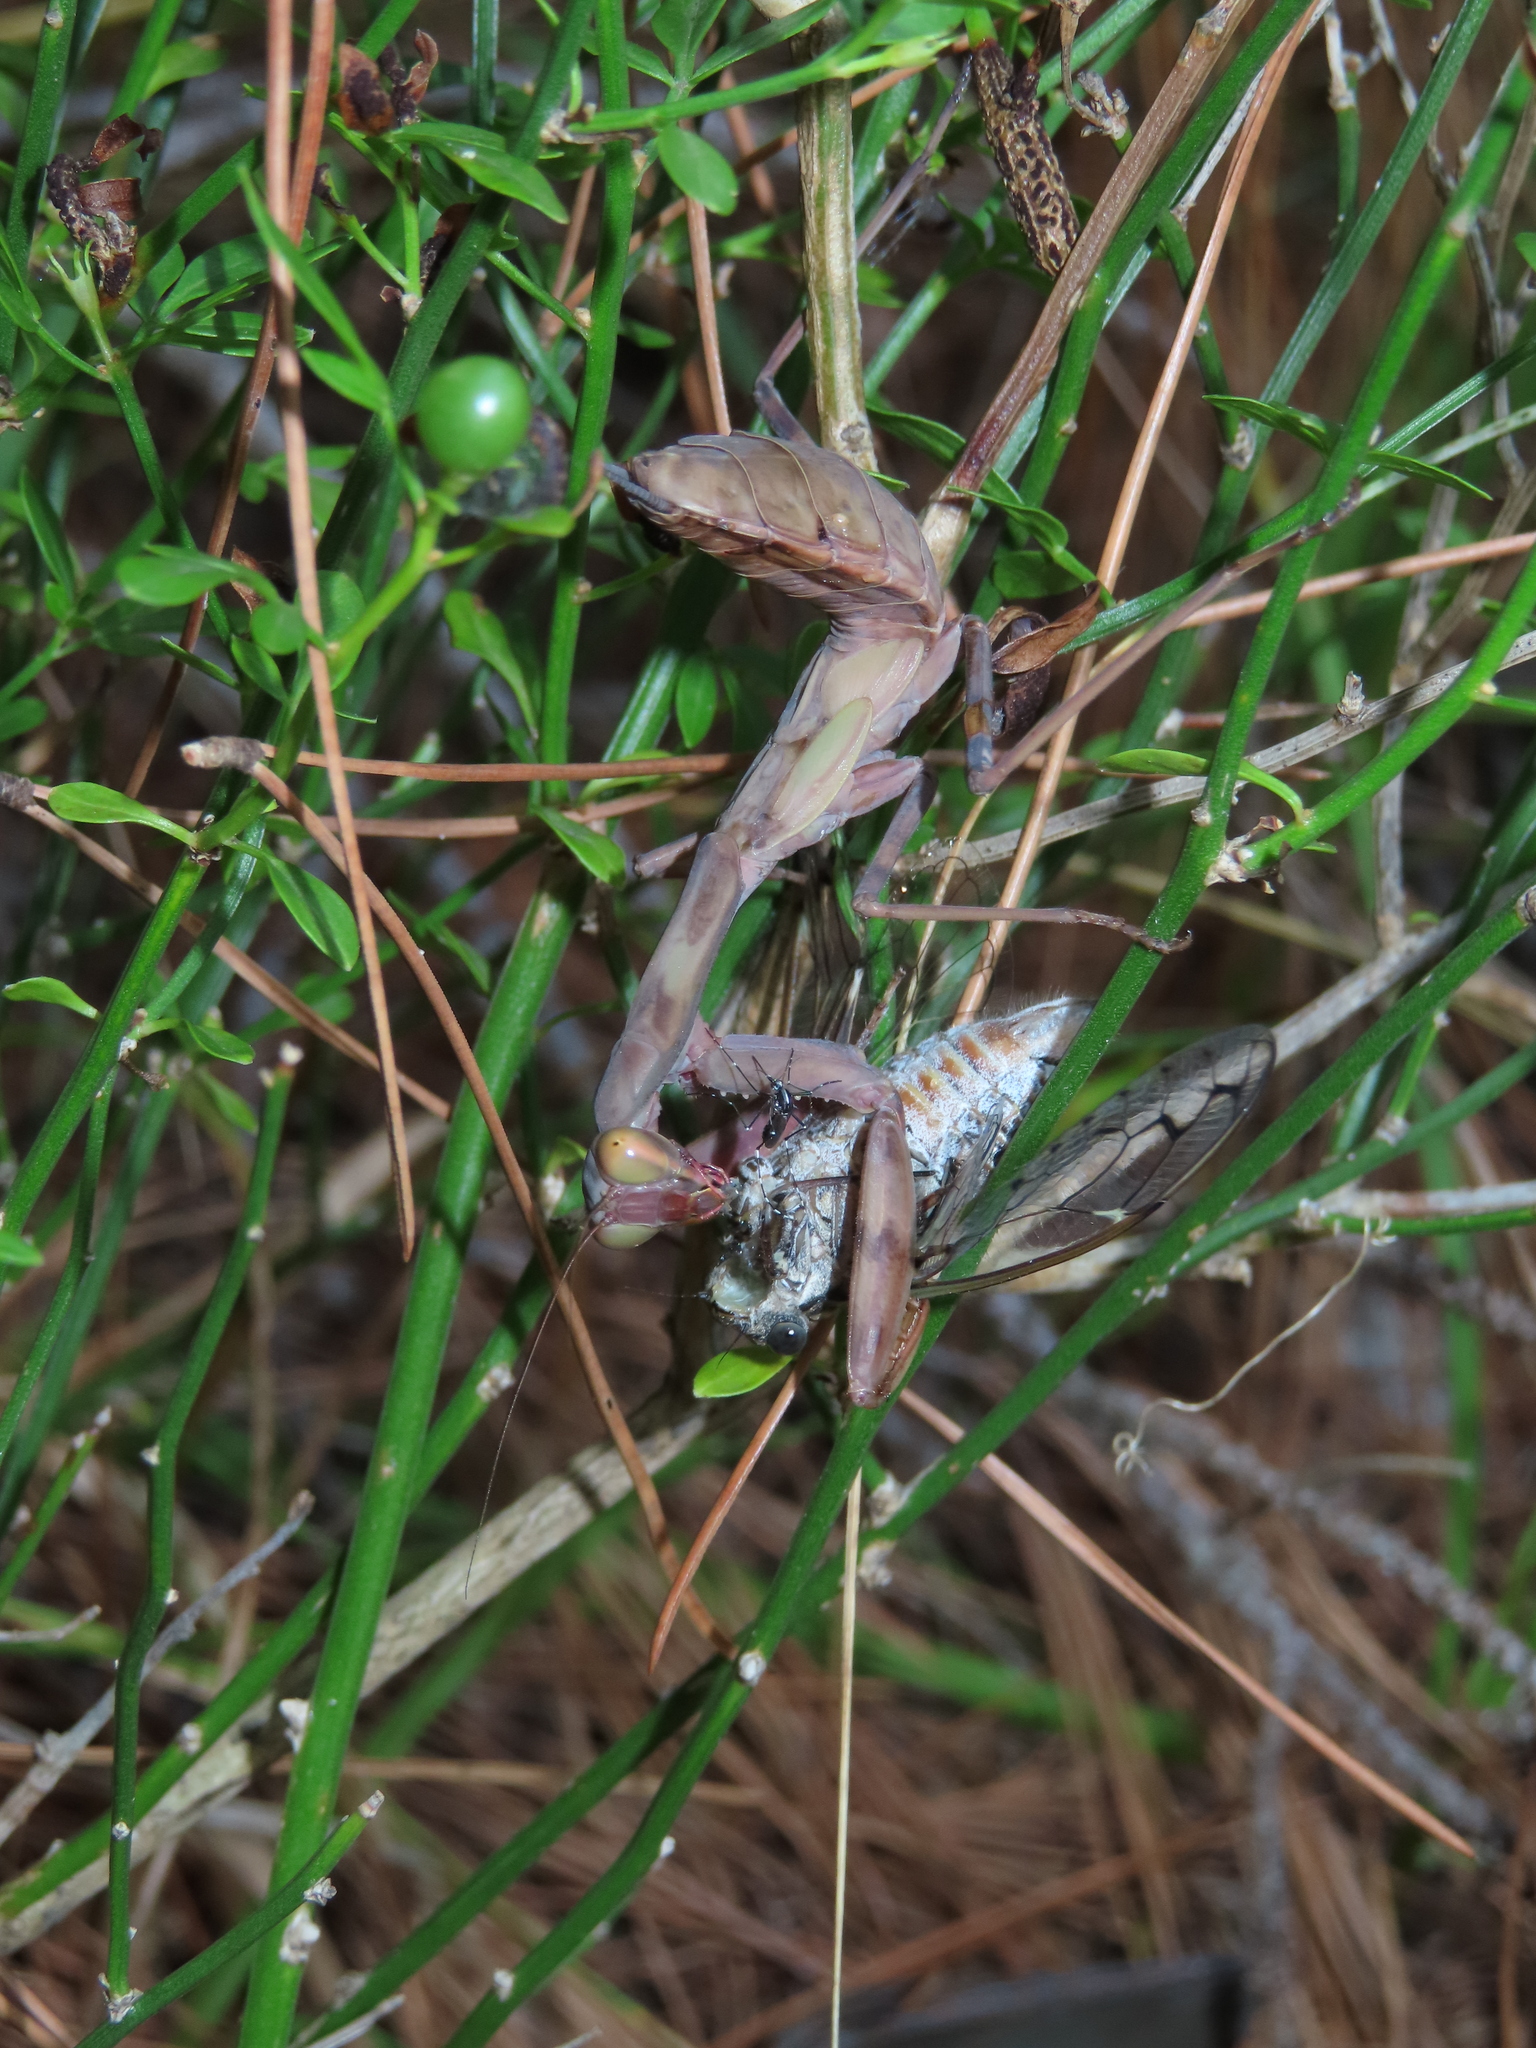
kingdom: Animalia
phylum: Arthropoda
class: Insecta
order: Mantodea
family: Mantidae
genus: Hierodula
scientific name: Hierodula transcaucasica
